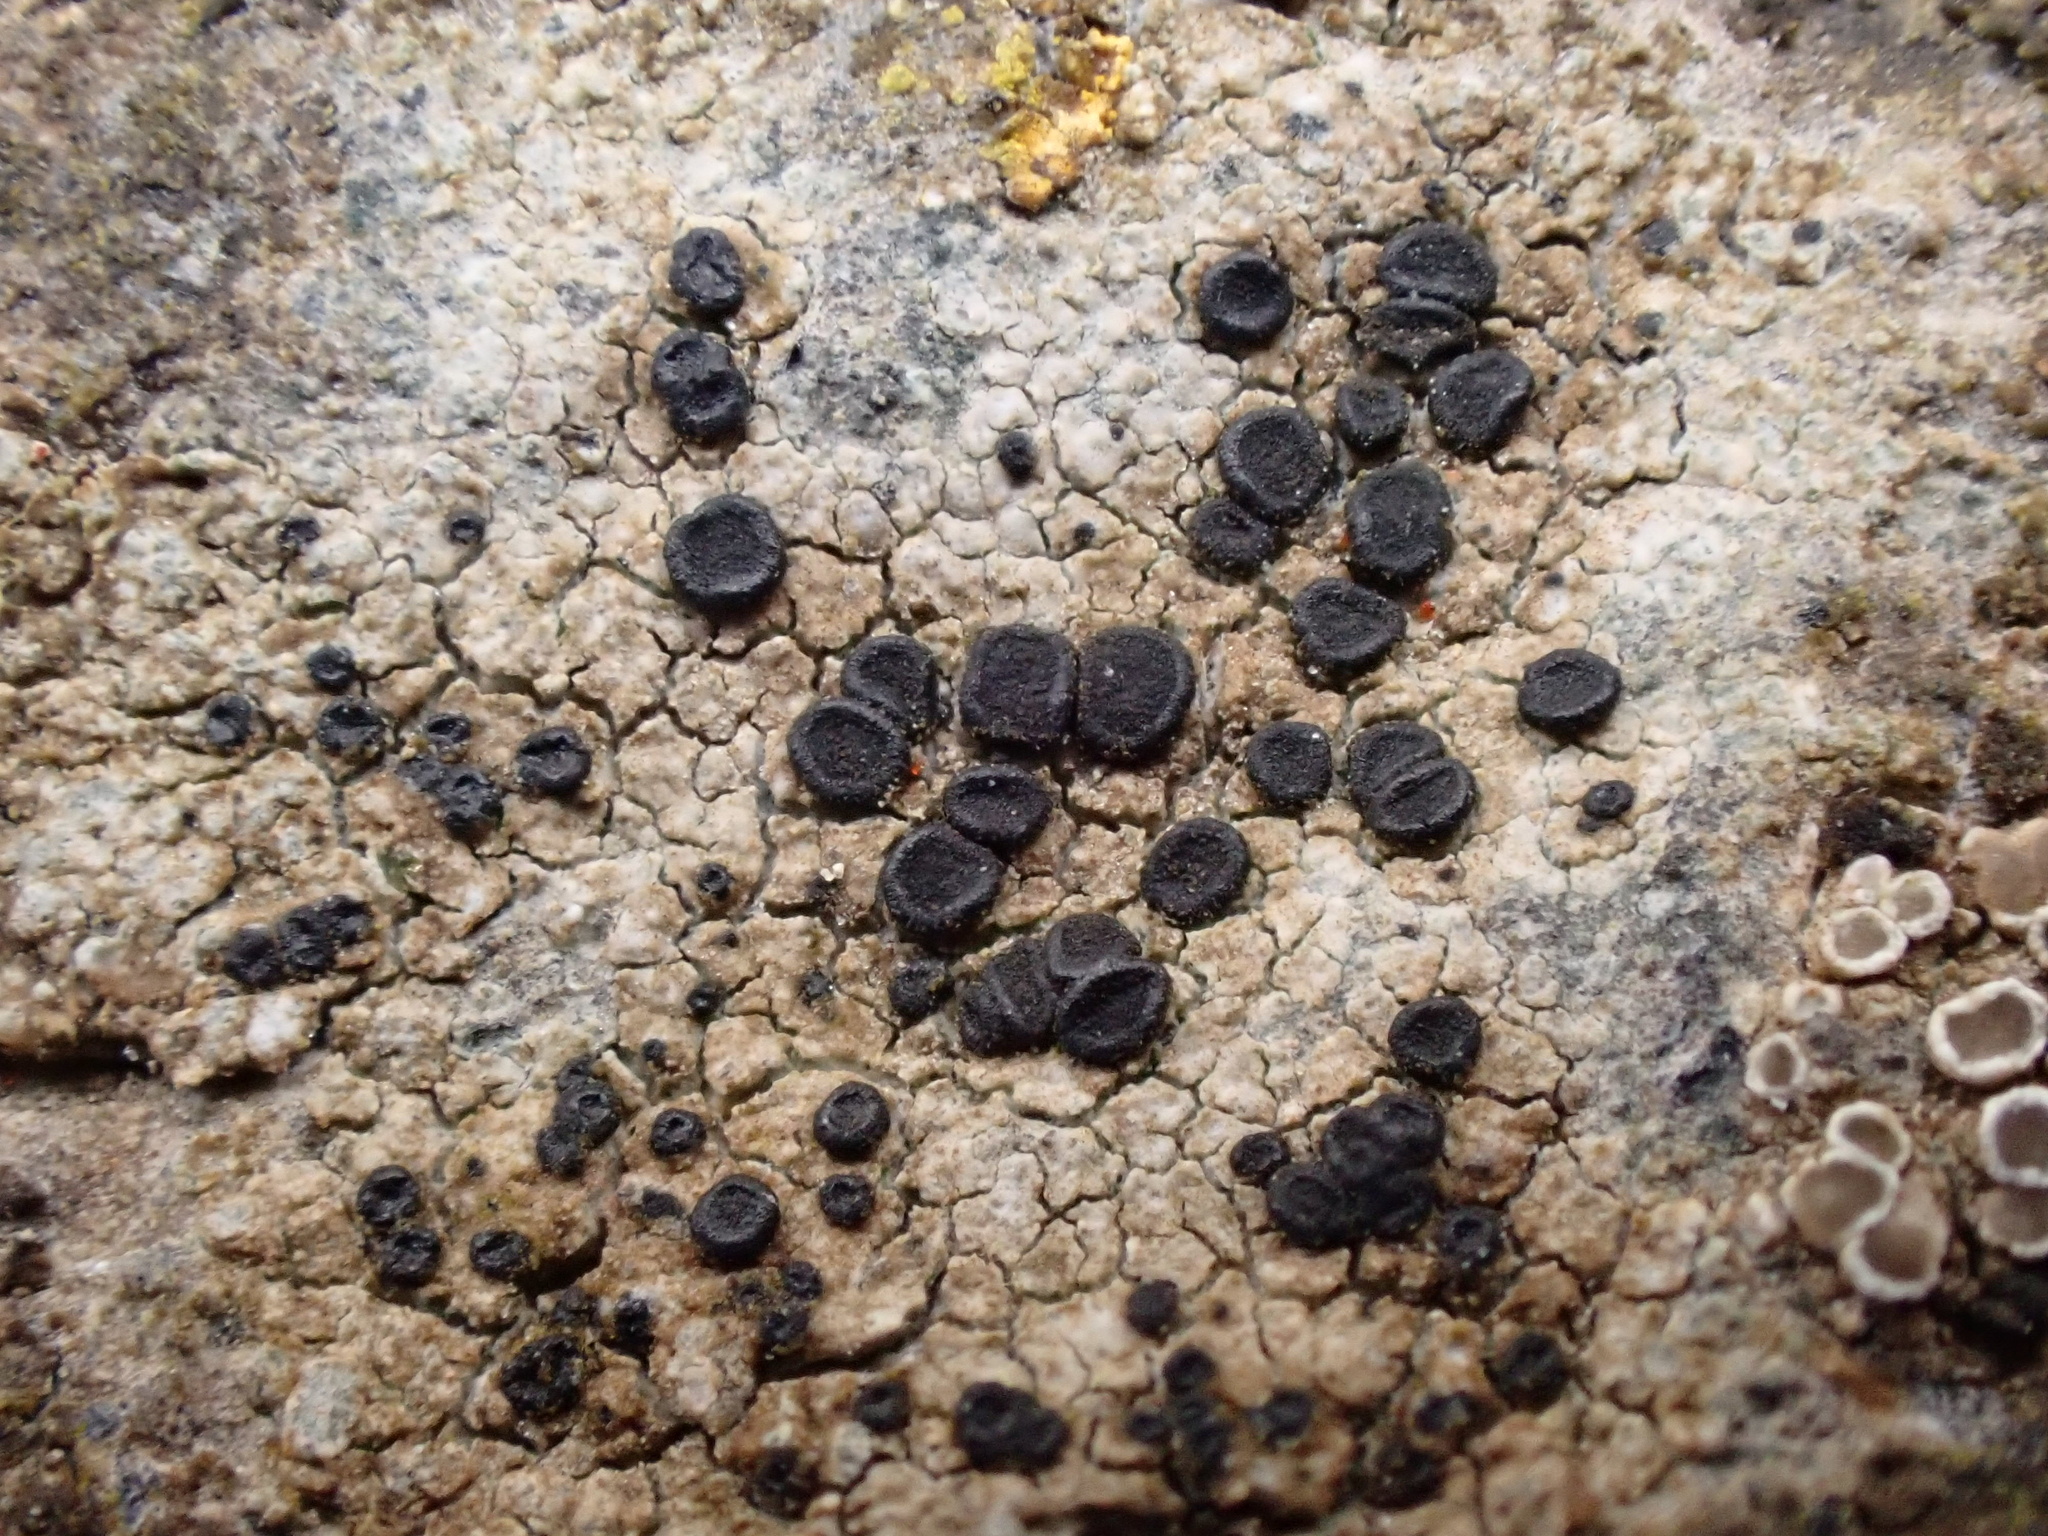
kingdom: Fungi
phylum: Ascomycota
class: Lecanoromycetes
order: Lecanorales
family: Lecanoraceae
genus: Lecidella
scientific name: Lecidella stigmatea
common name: Limestone disc lichen
